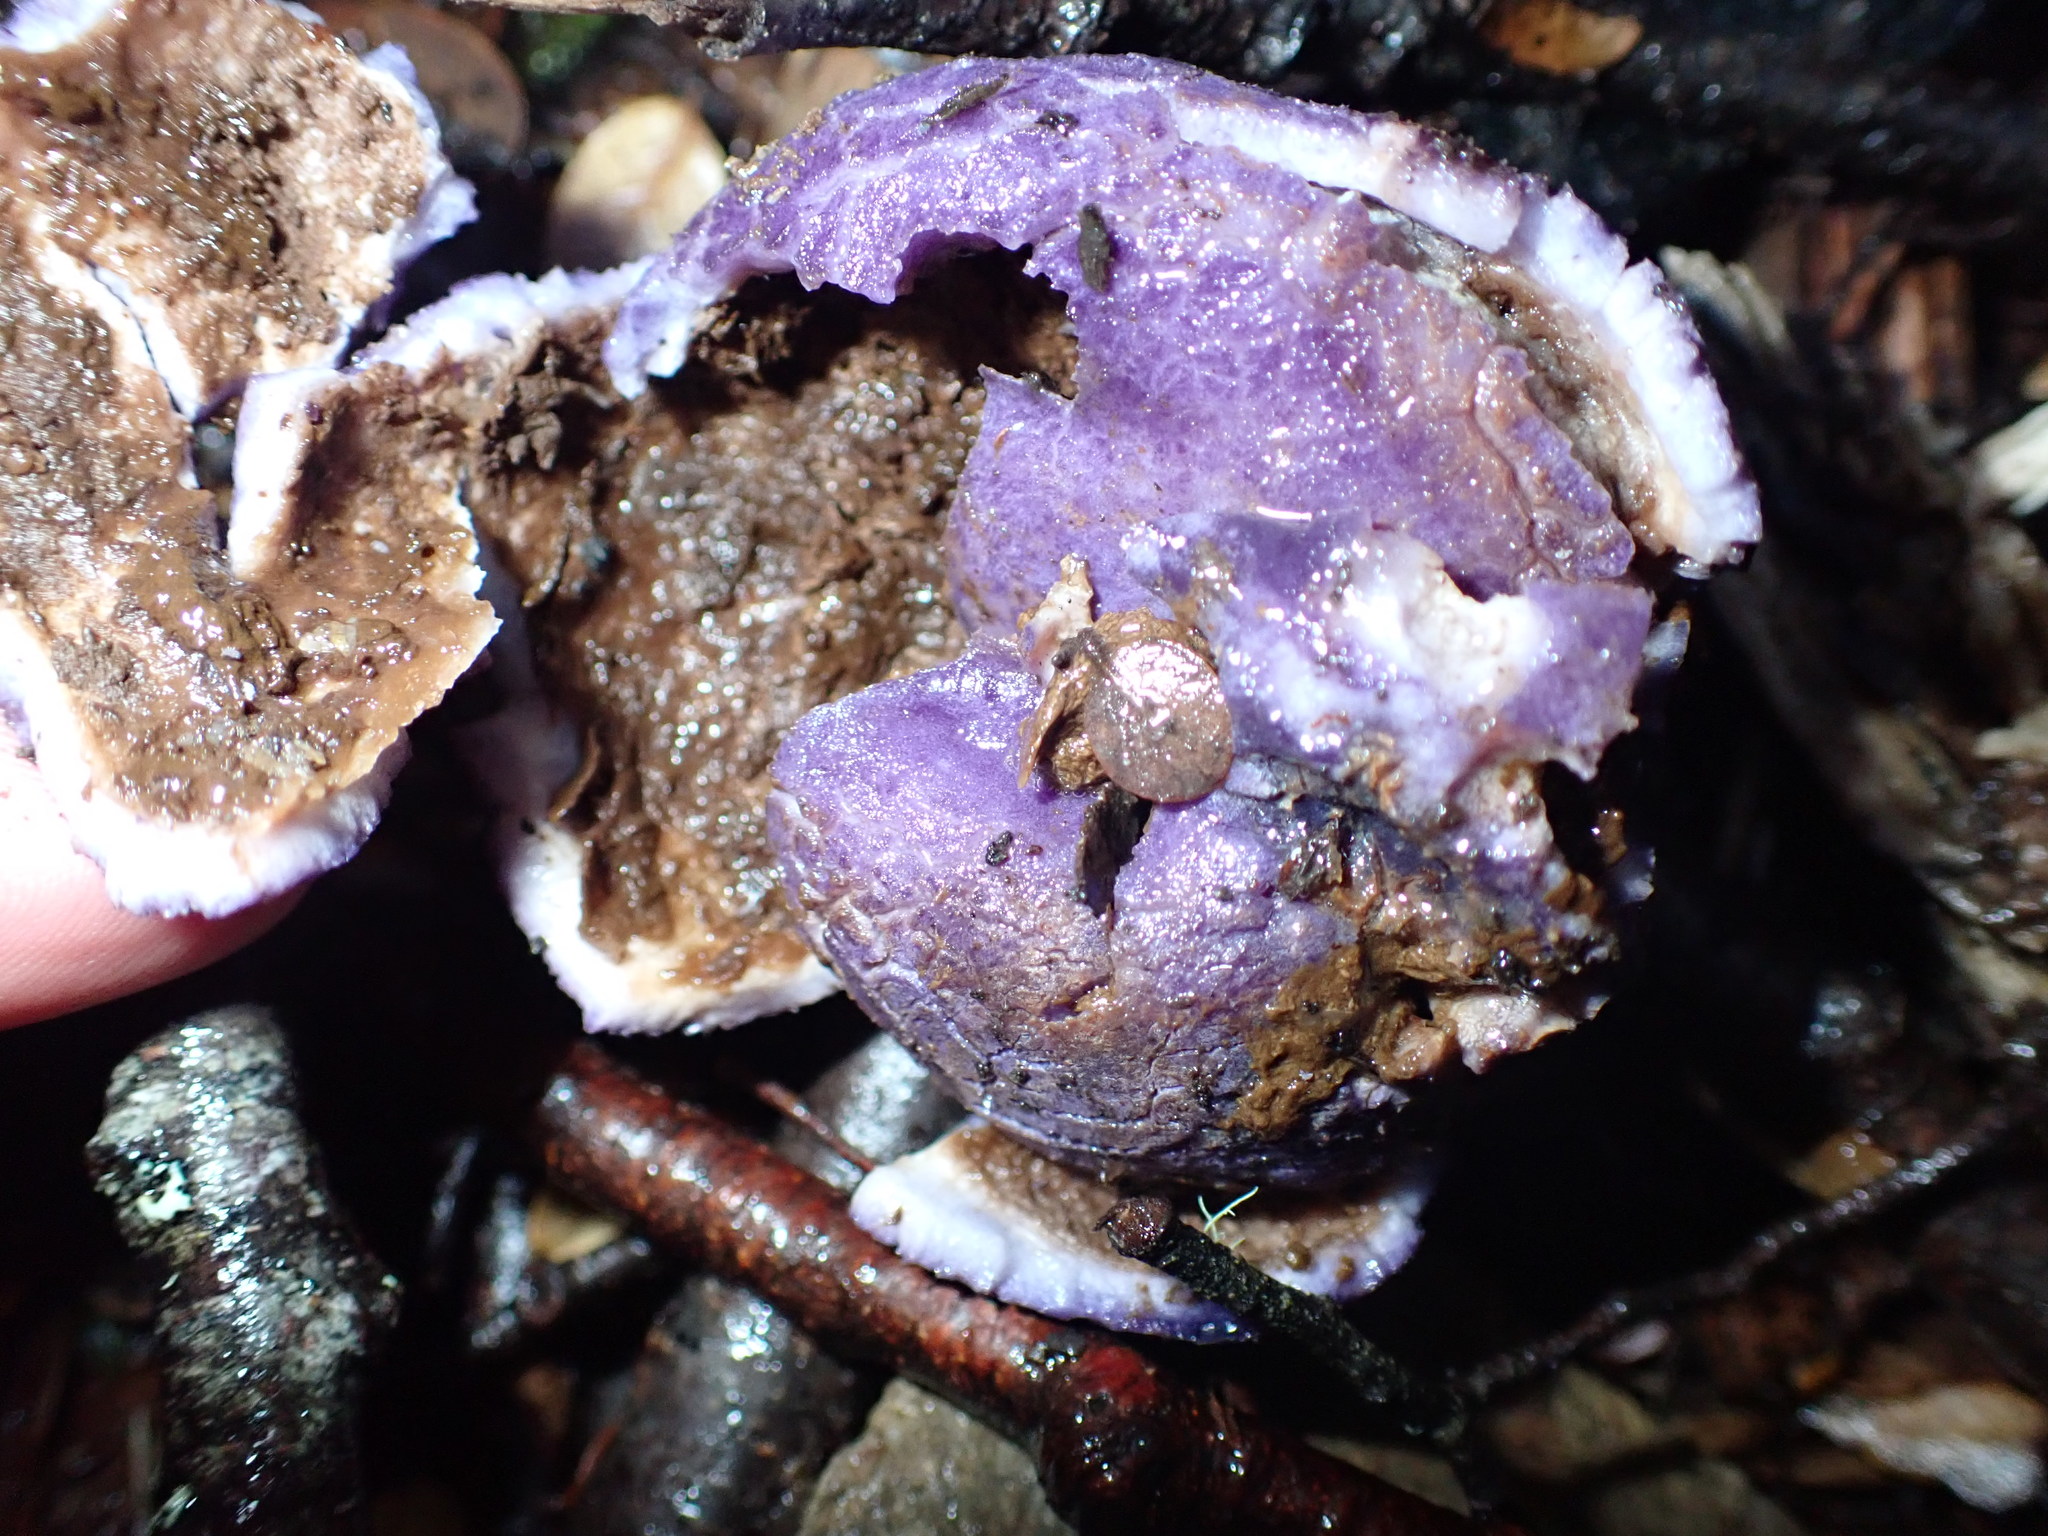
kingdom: Fungi
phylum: Basidiomycota
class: Agaricomycetes
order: Hysterangiales
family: Gallaceaceae
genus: Gallacea
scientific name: Gallacea scleroderma
